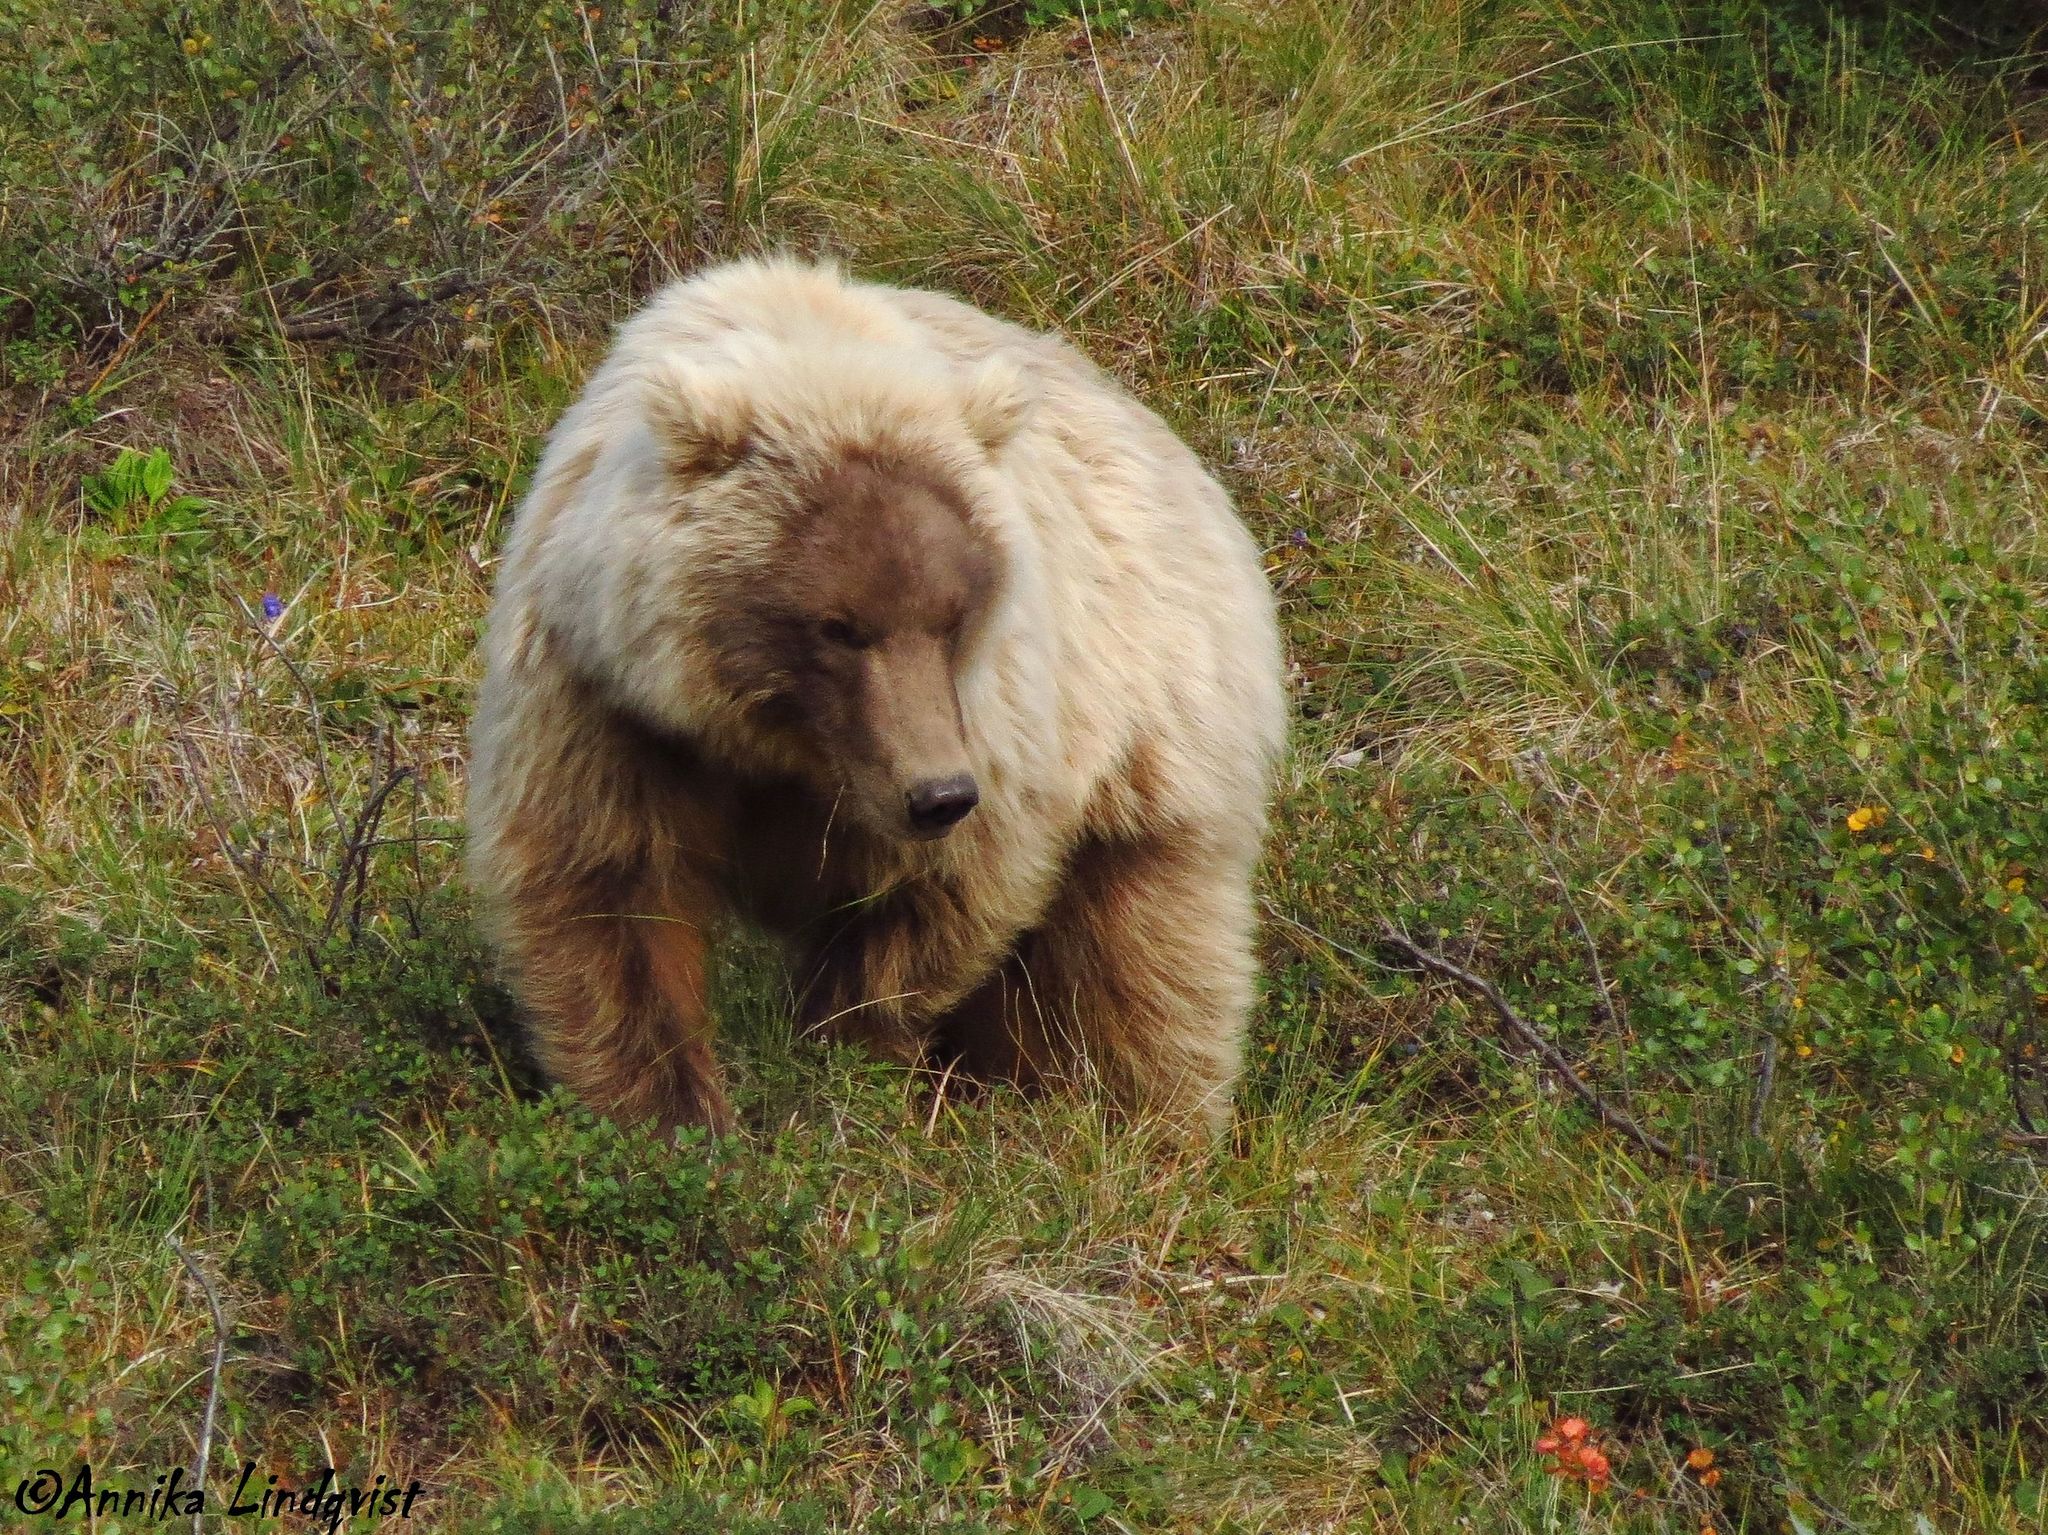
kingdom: Animalia
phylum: Chordata
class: Mammalia
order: Carnivora
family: Ursidae
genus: Ursus
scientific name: Ursus arctos
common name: Brown bear
